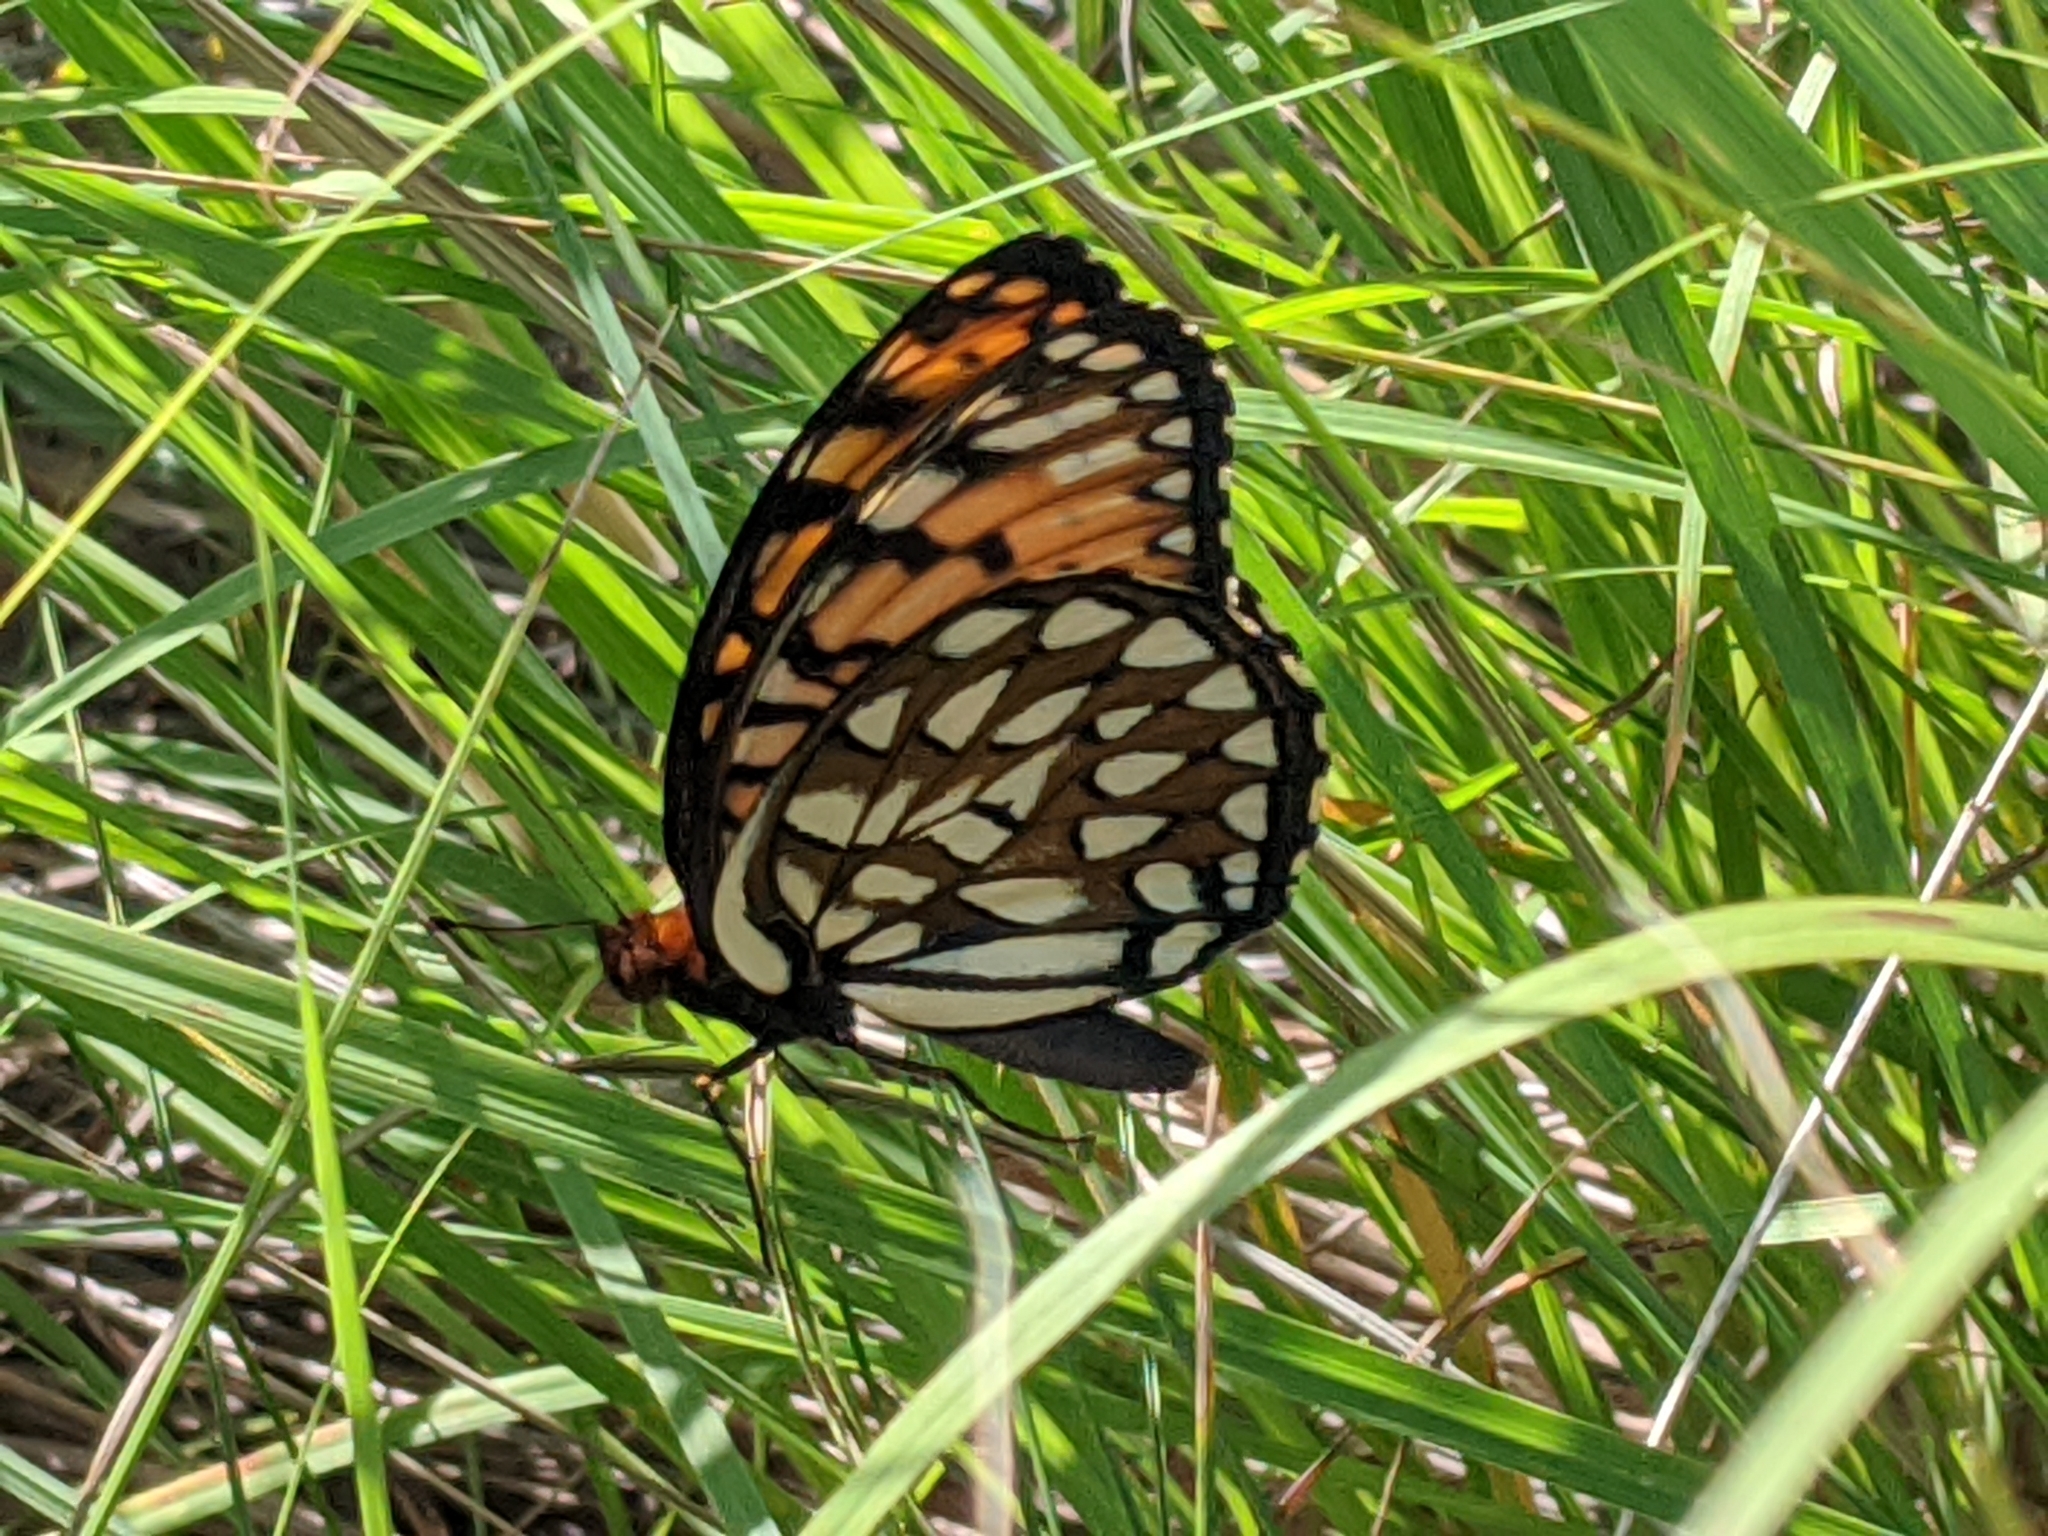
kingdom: Animalia
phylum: Arthropoda
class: Insecta
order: Lepidoptera
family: Nymphalidae
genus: Speyeria
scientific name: Speyeria idalia
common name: Regal fritillary
